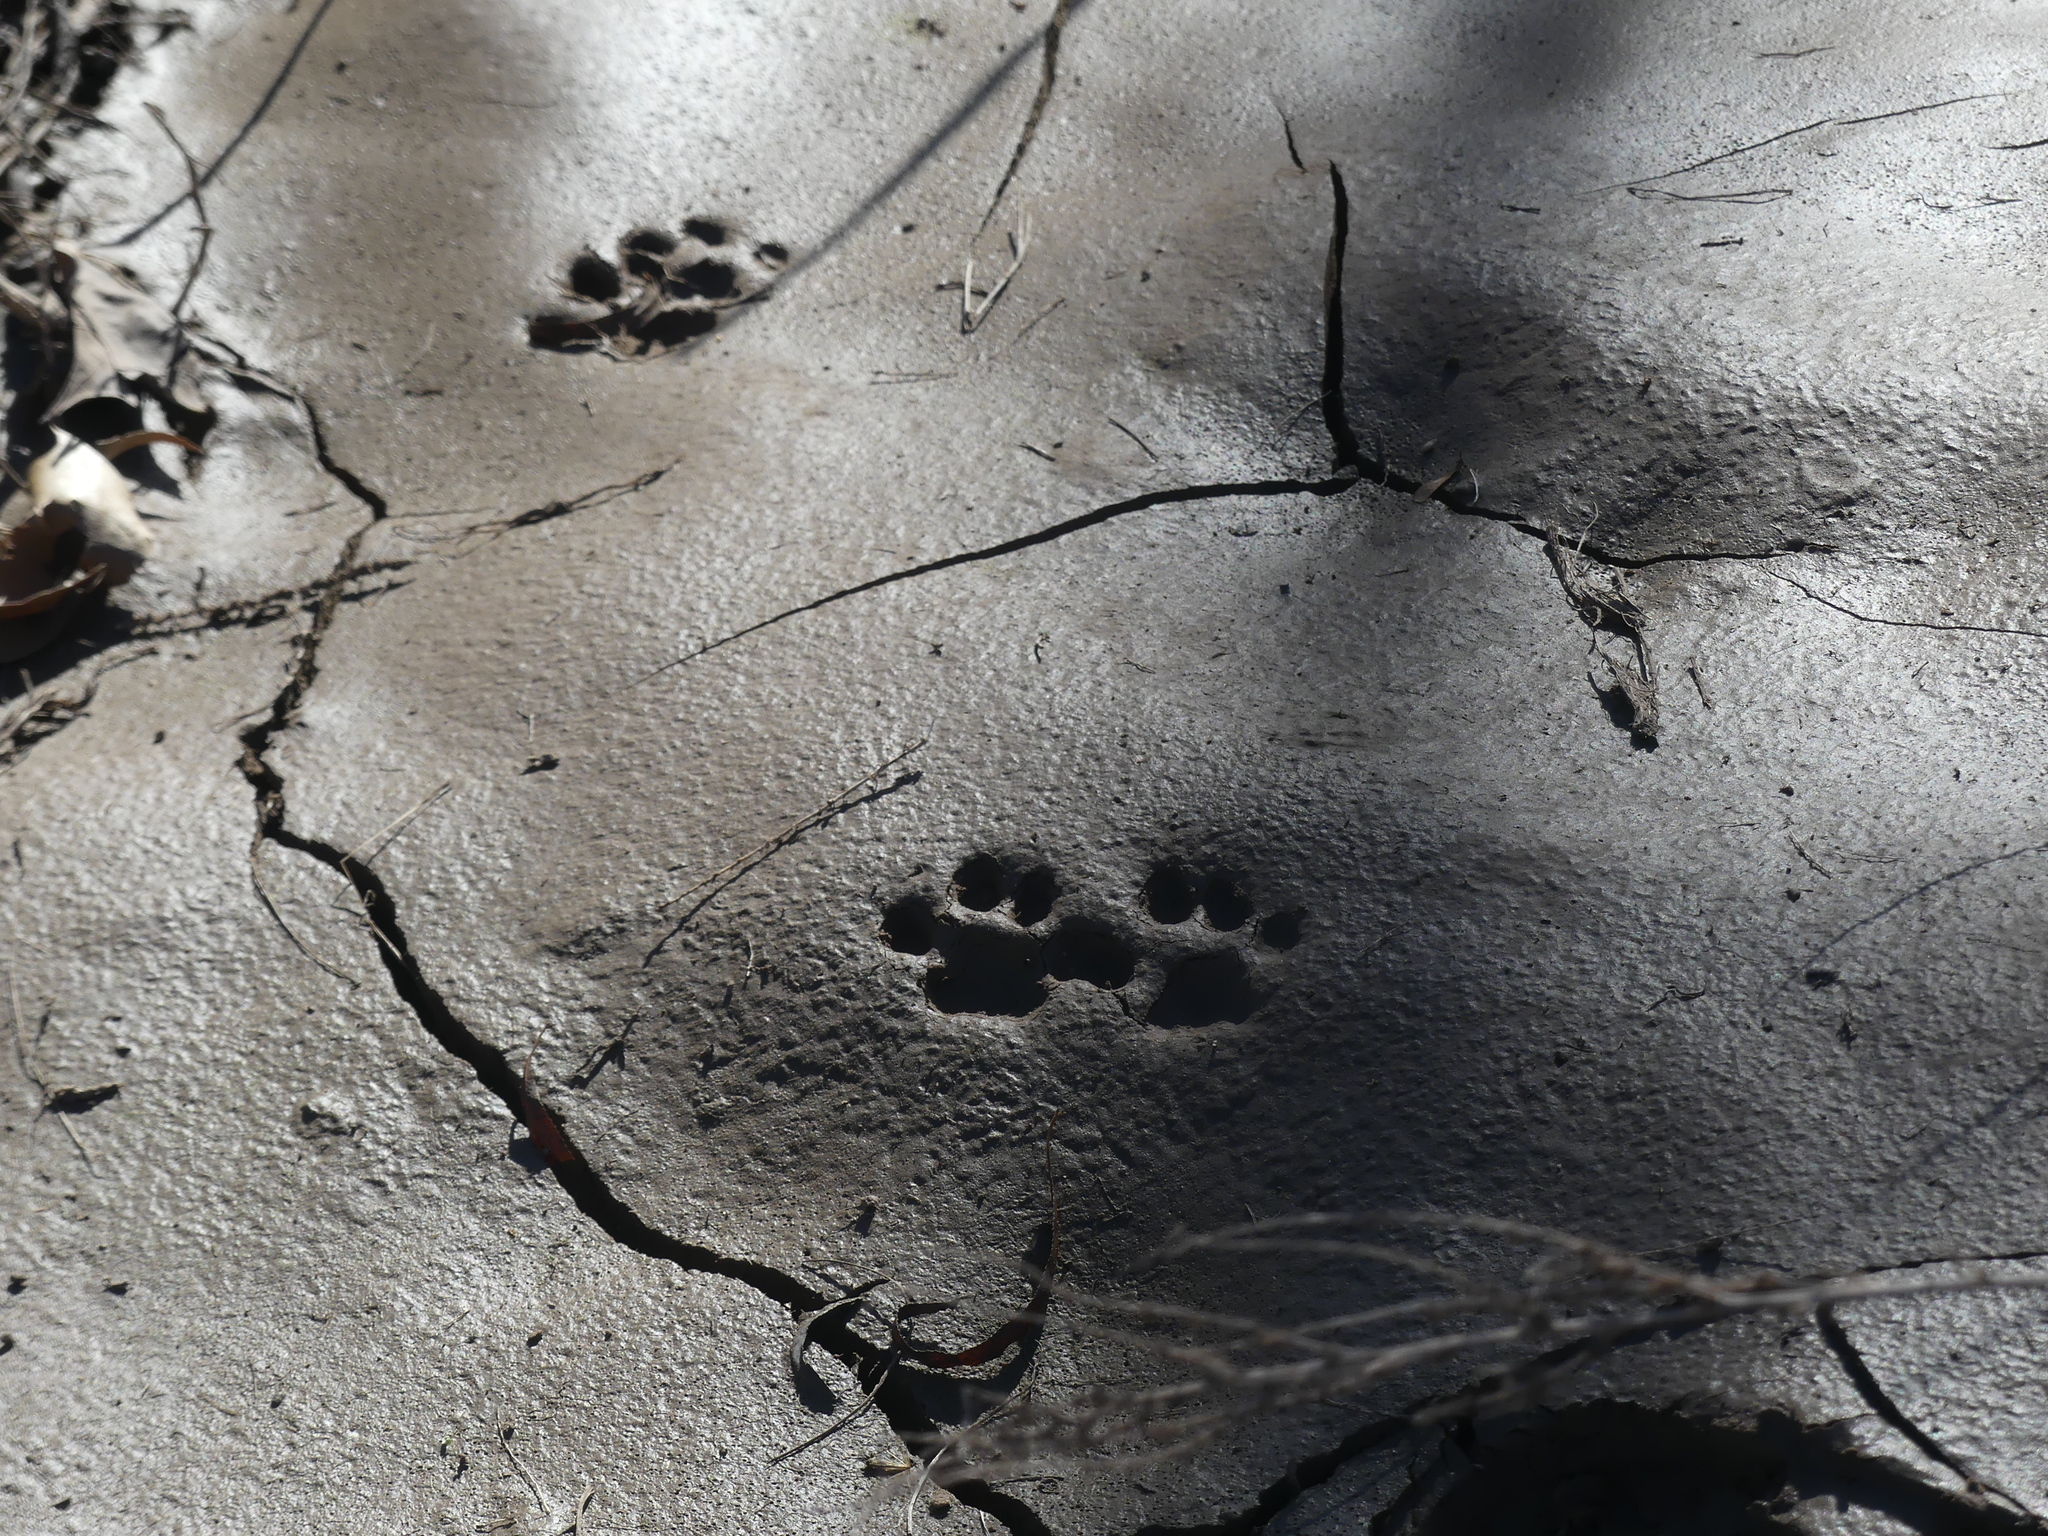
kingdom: Animalia
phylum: Chordata
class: Mammalia
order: Carnivora
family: Felidae
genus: Lynx
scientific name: Lynx rufus
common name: Bobcat
